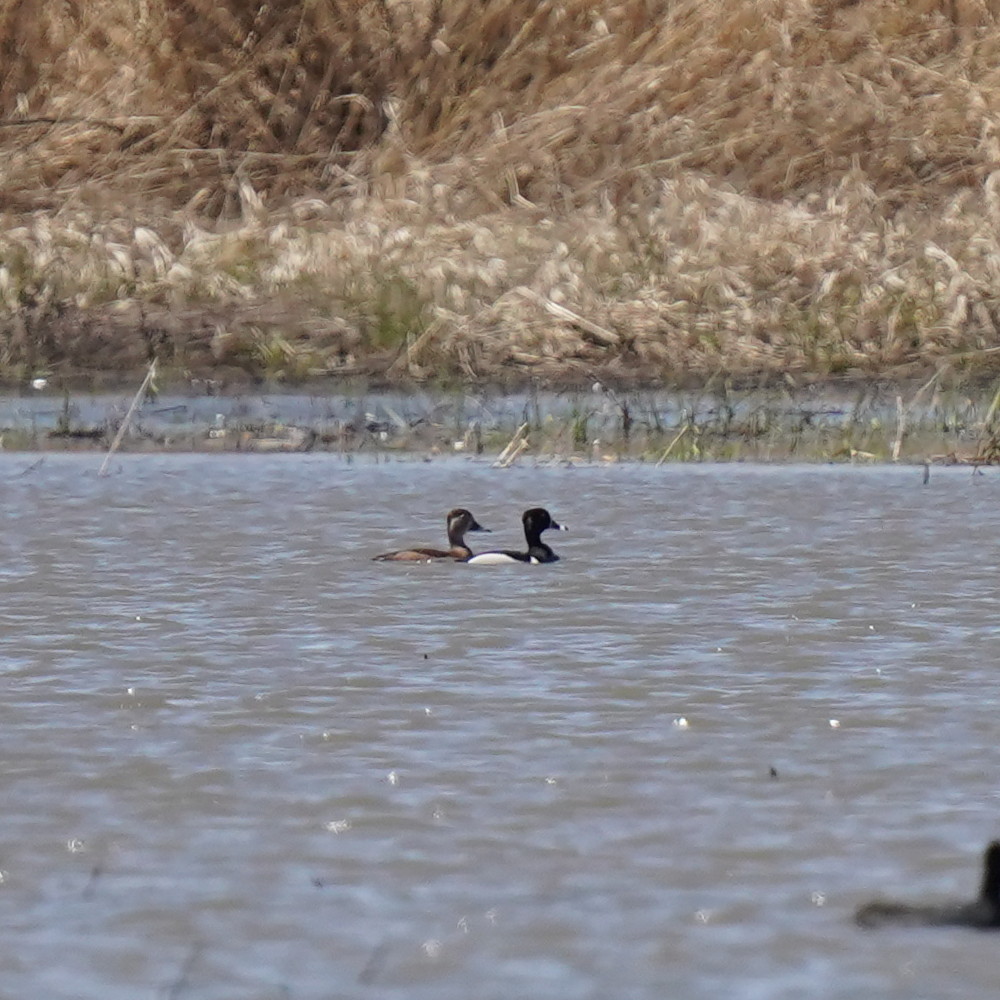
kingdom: Animalia
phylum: Chordata
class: Aves
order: Anseriformes
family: Anatidae
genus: Aythya
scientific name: Aythya collaris
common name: Ring-necked duck
